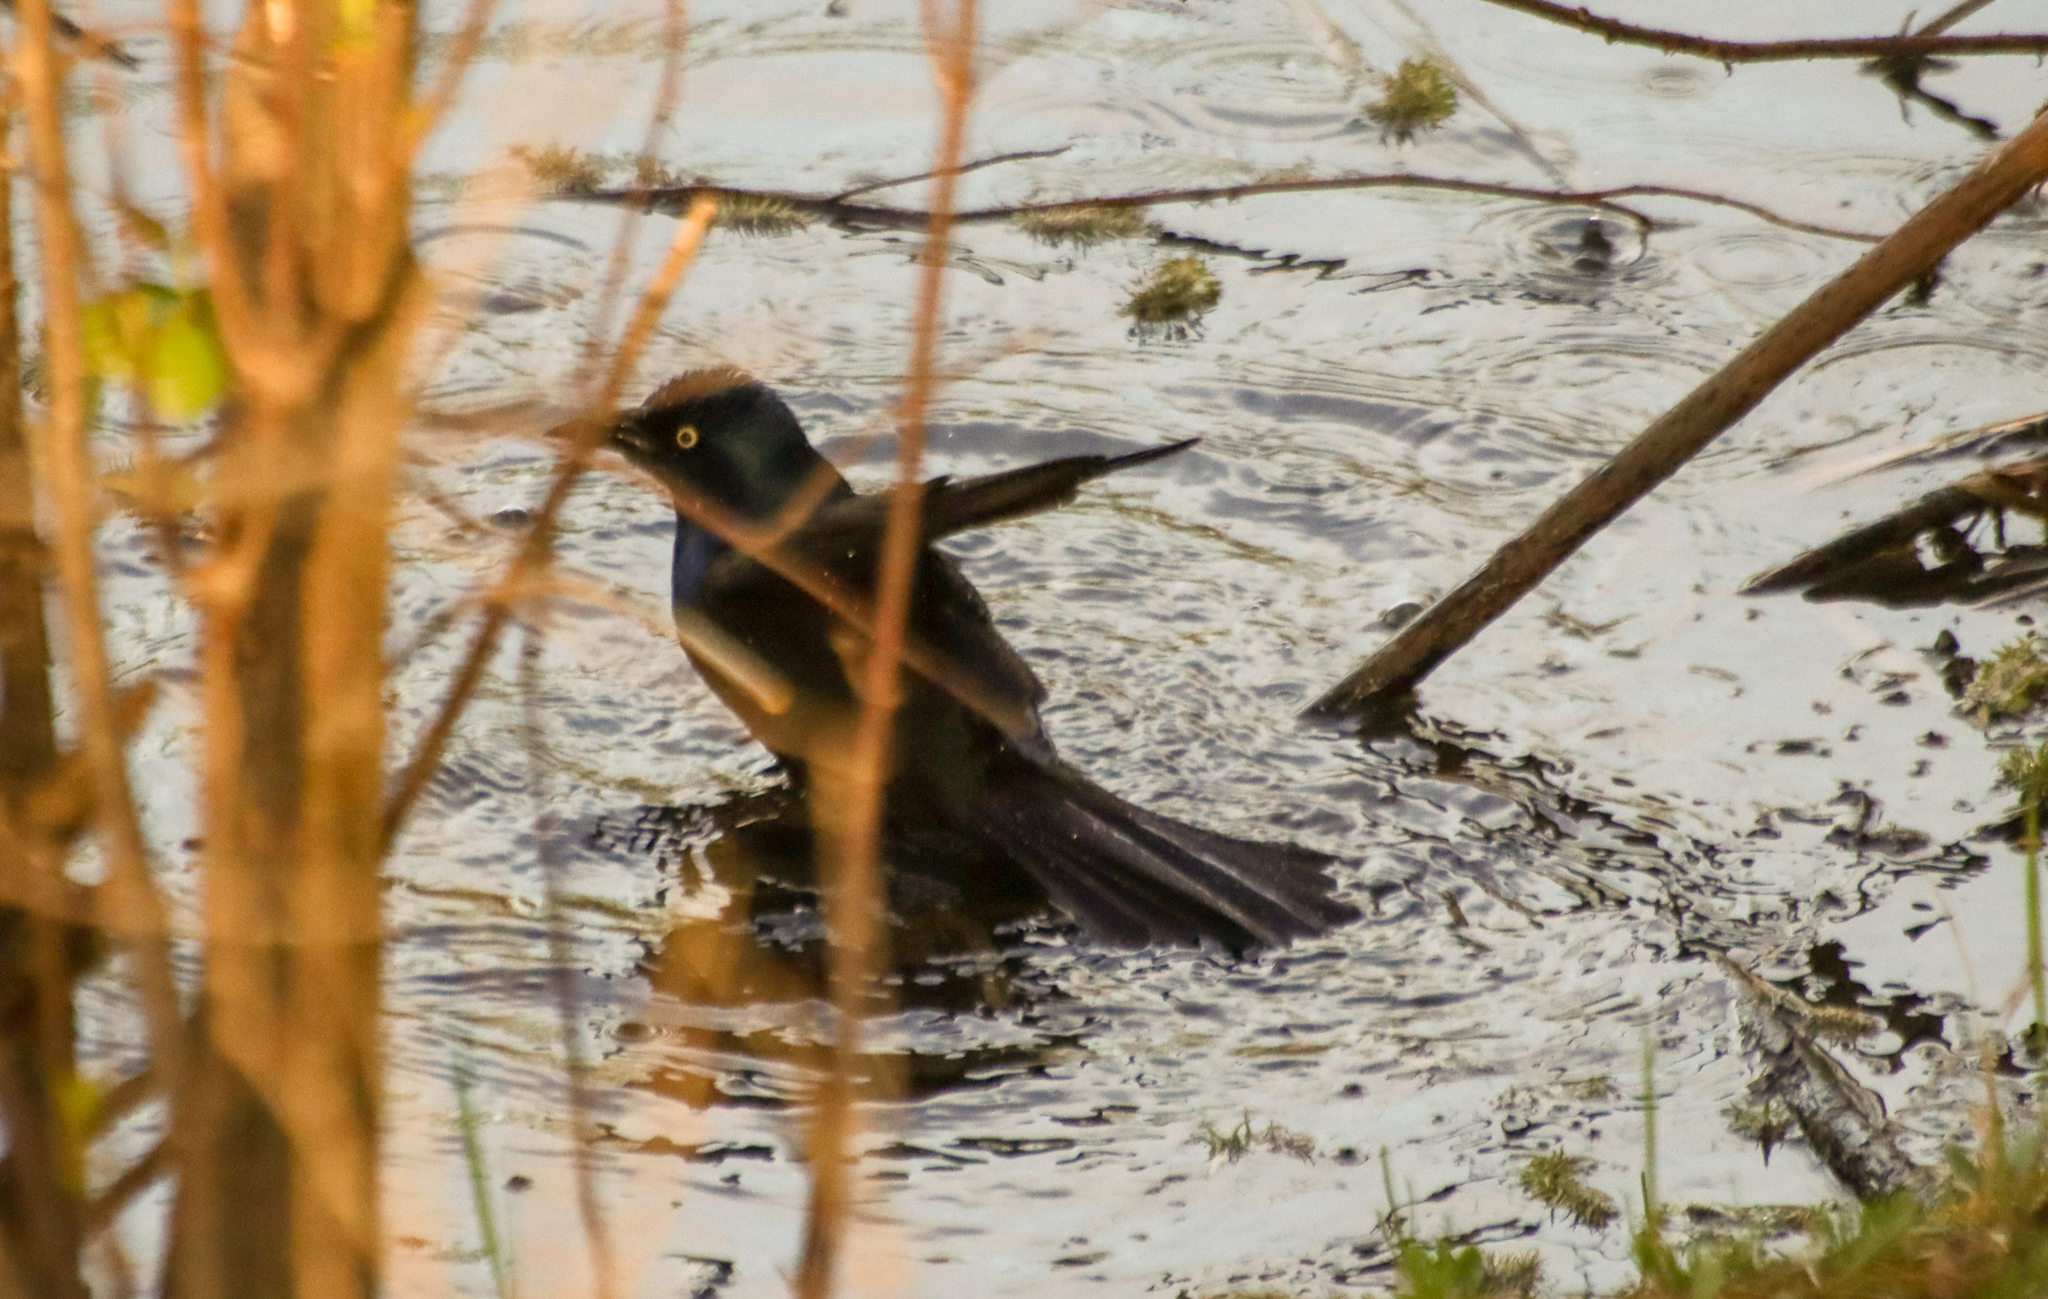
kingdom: Animalia
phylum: Chordata
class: Aves
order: Passeriformes
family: Icteridae
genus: Quiscalus
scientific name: Quiscalus quiscula
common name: Common grackle
